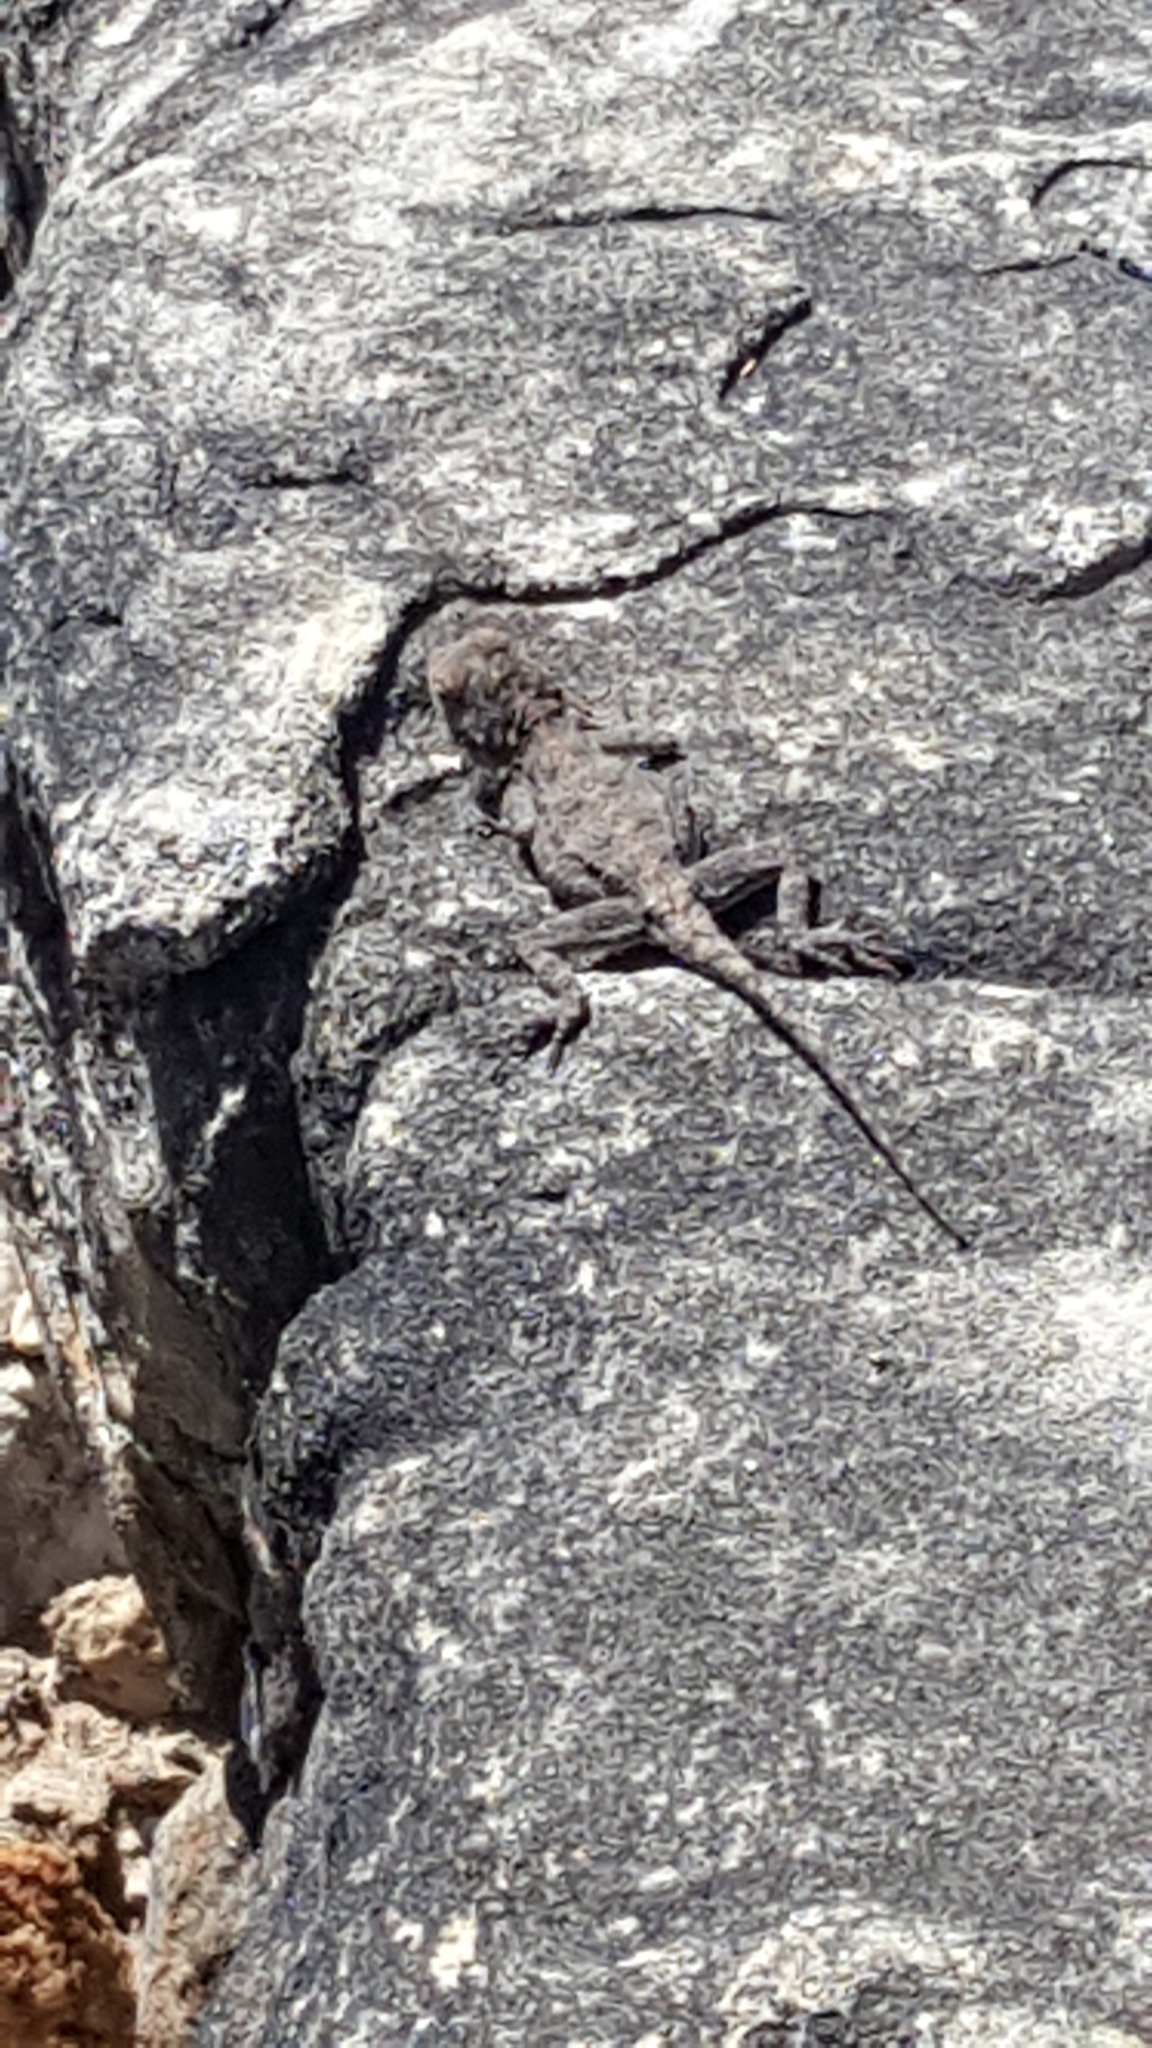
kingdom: Animalia
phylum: Chordata
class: Squamata
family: Agamidae
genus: Agama
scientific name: Agama atra
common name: Southern african rock agama
